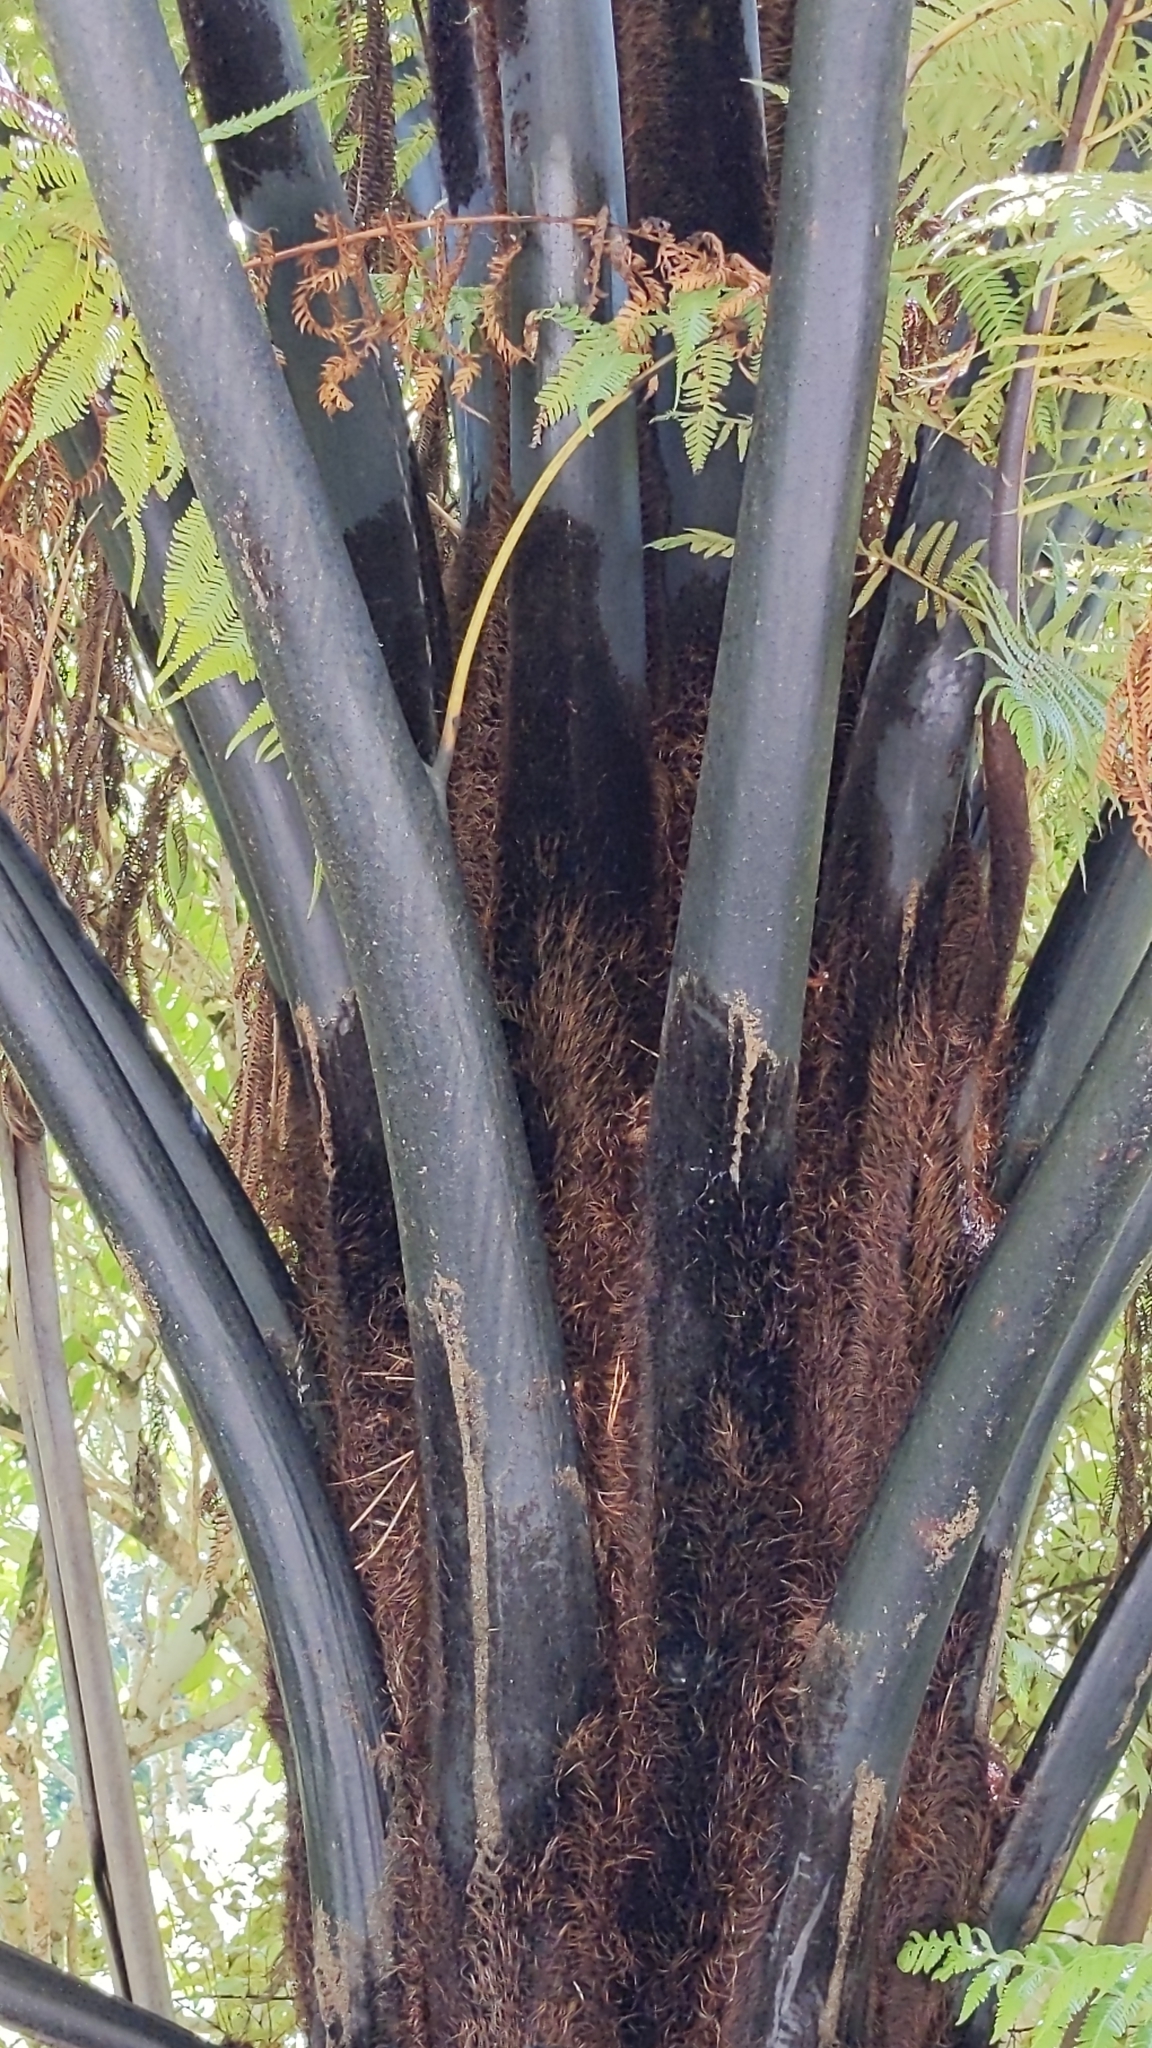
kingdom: Plantae
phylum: Tracheophyta
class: Polypodiopsida
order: Cyatheales
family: Cyatheaceae
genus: Sphaeropteris
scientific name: Sphaeropteris medullaris
